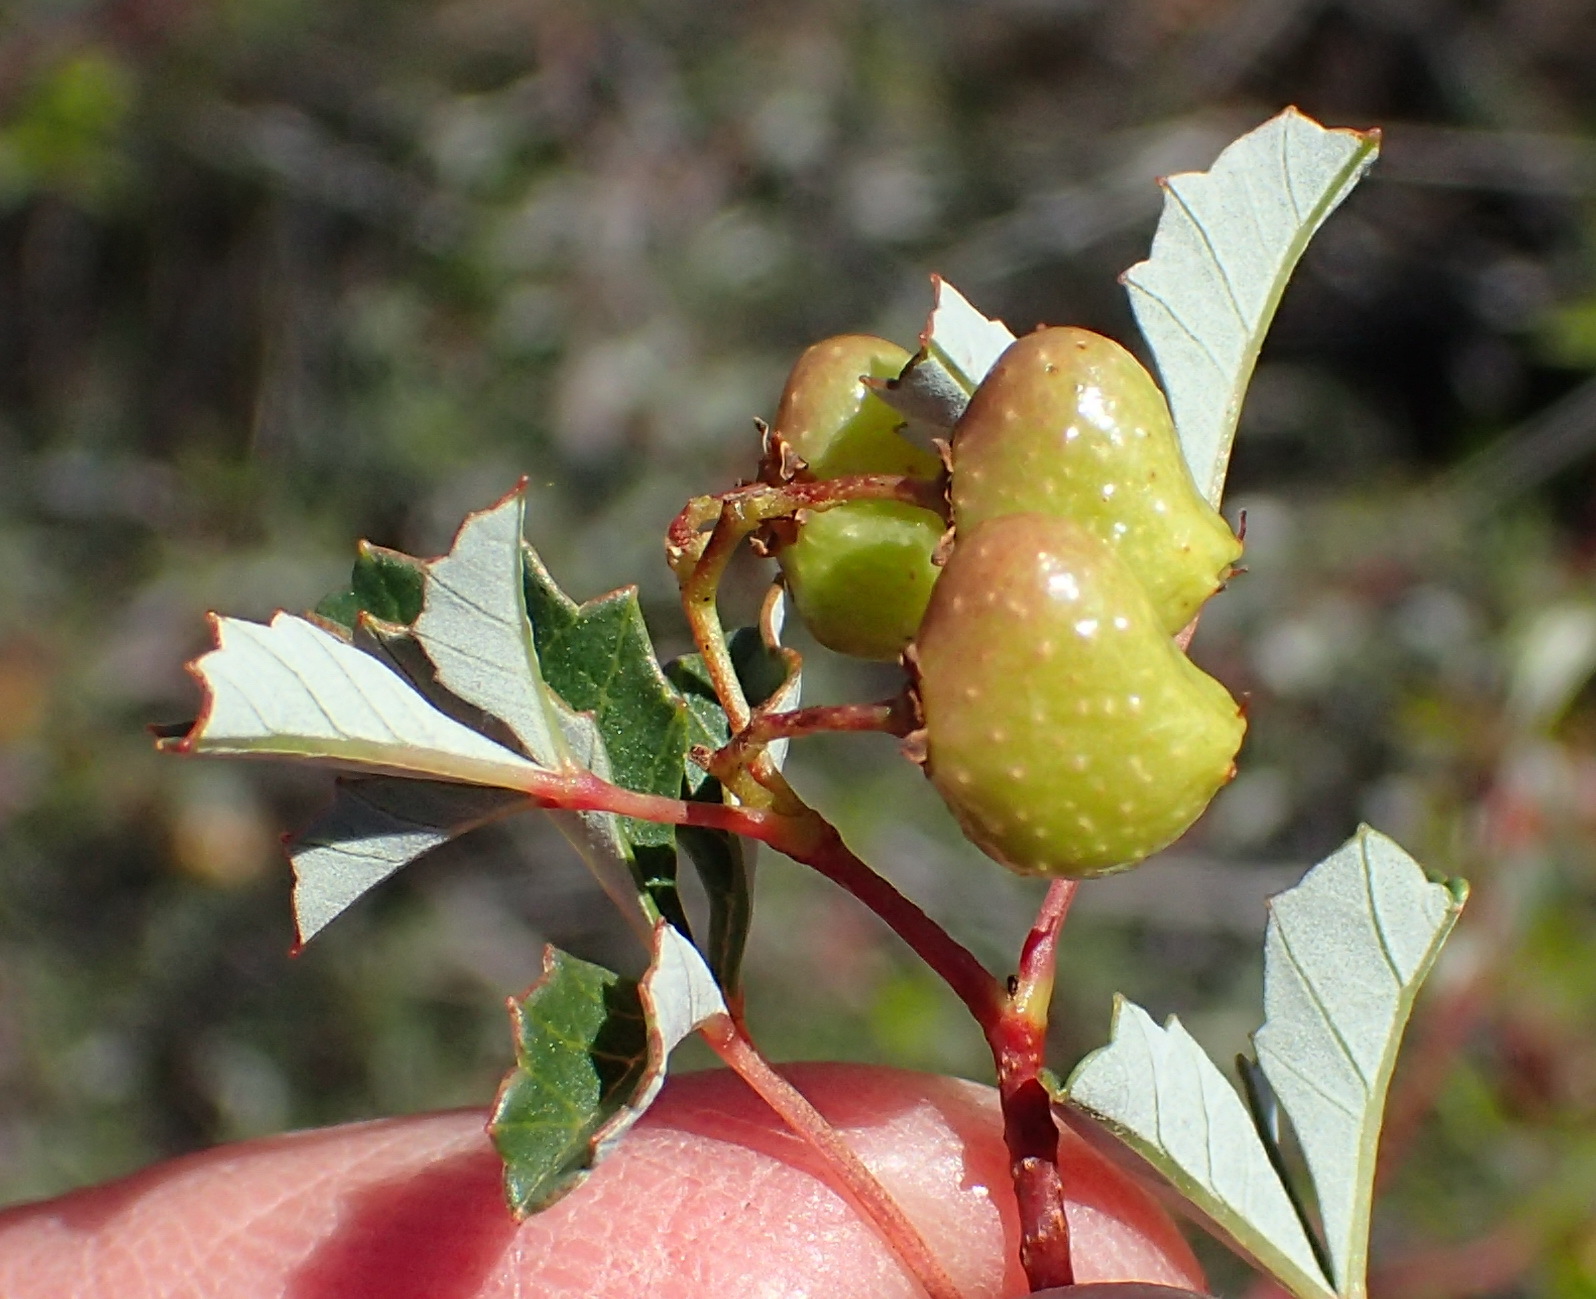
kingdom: Plantae
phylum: Tracheophyta
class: Magnoliopsida
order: Sapindales
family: Anacardiaceae
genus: Searsia
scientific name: Searsia dissecta
